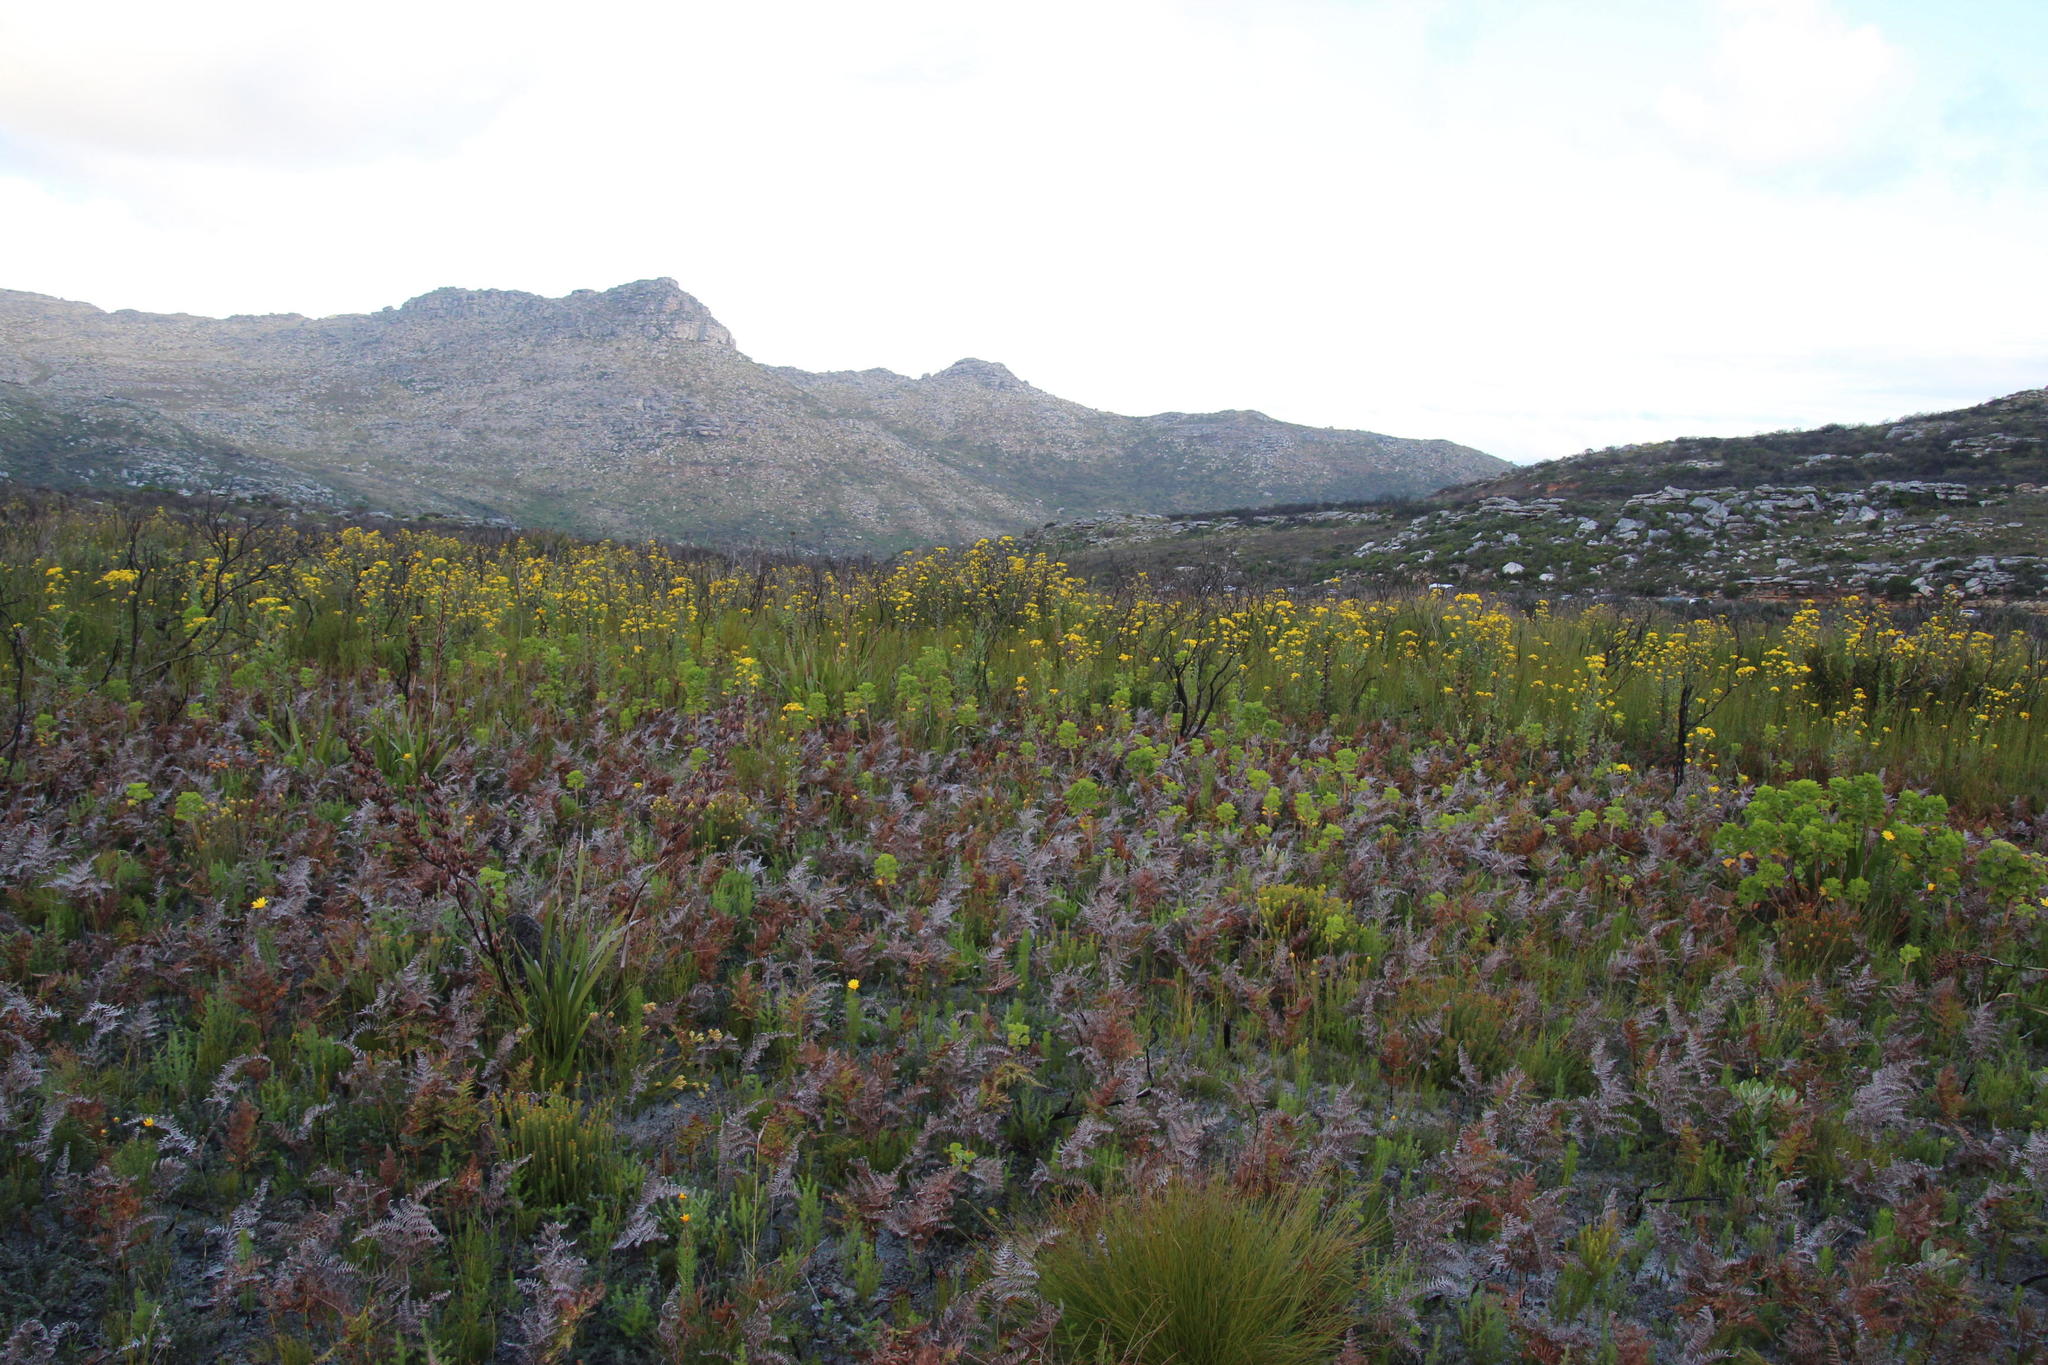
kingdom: Plantae
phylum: Tracheophyta
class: Magnoliopsida
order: Asterales
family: Asteraceae
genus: Euryops
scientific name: Euryops abrotanifolius
